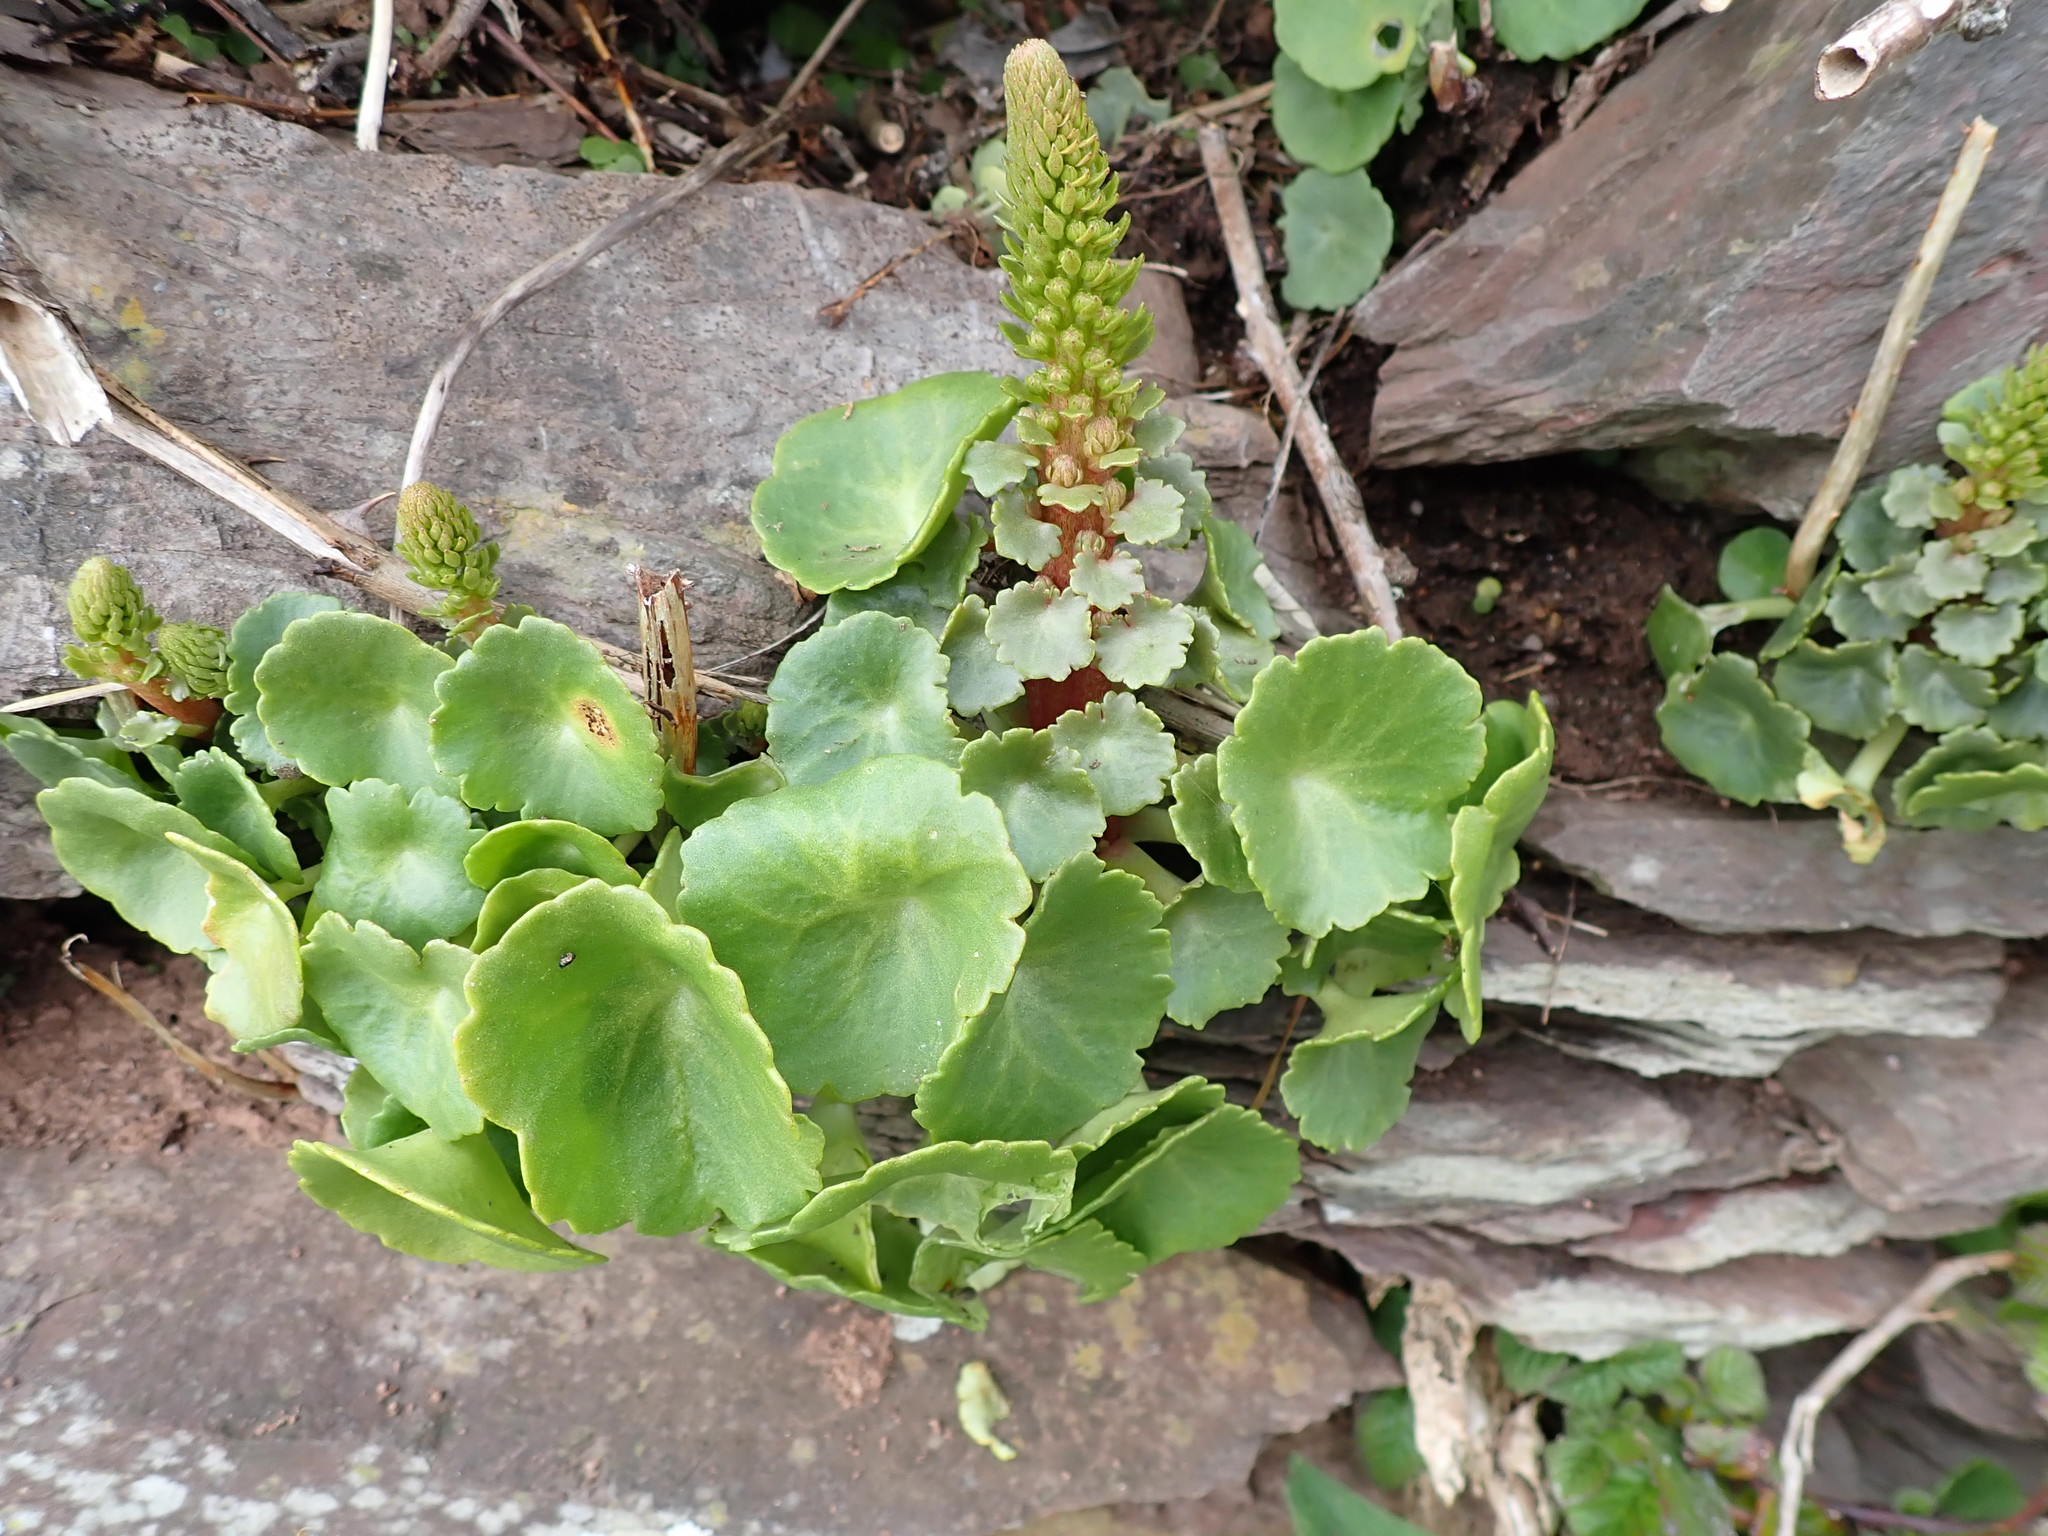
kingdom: Plantae
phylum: Tracheophyta
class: Magnoliopsida
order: Saxifragales
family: Crassulaceae
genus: Umbilicus
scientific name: Umbilicus rupestris
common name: Navelwort
